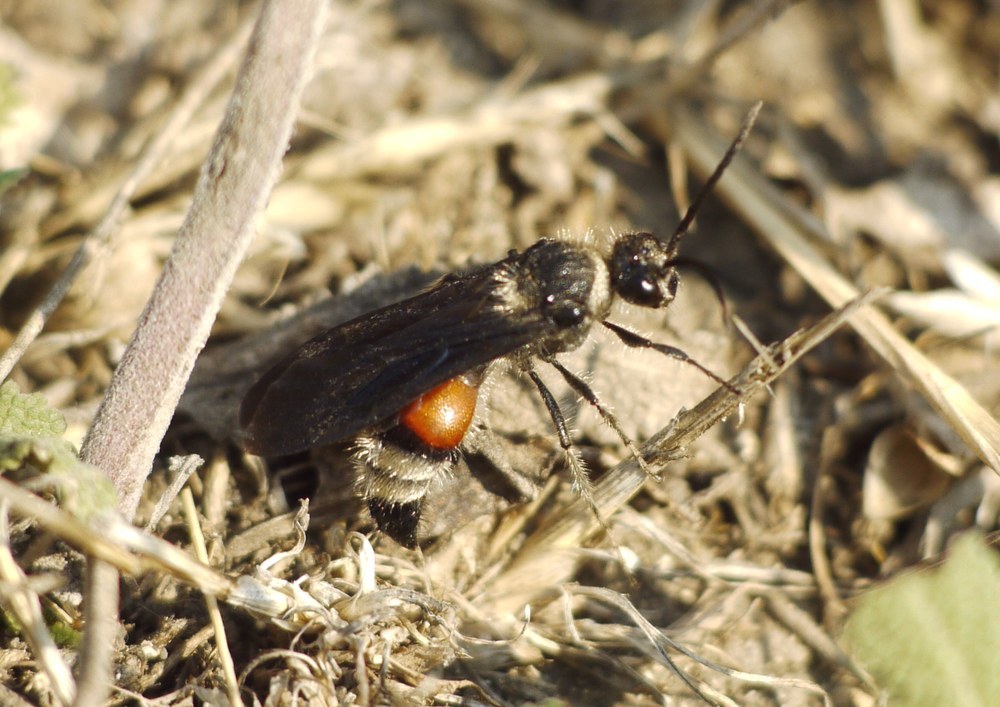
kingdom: Animalia
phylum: Arthropoda
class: Insecta
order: Hymenoptera
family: Mutillidae
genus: Nemka
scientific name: Nemka viduata
